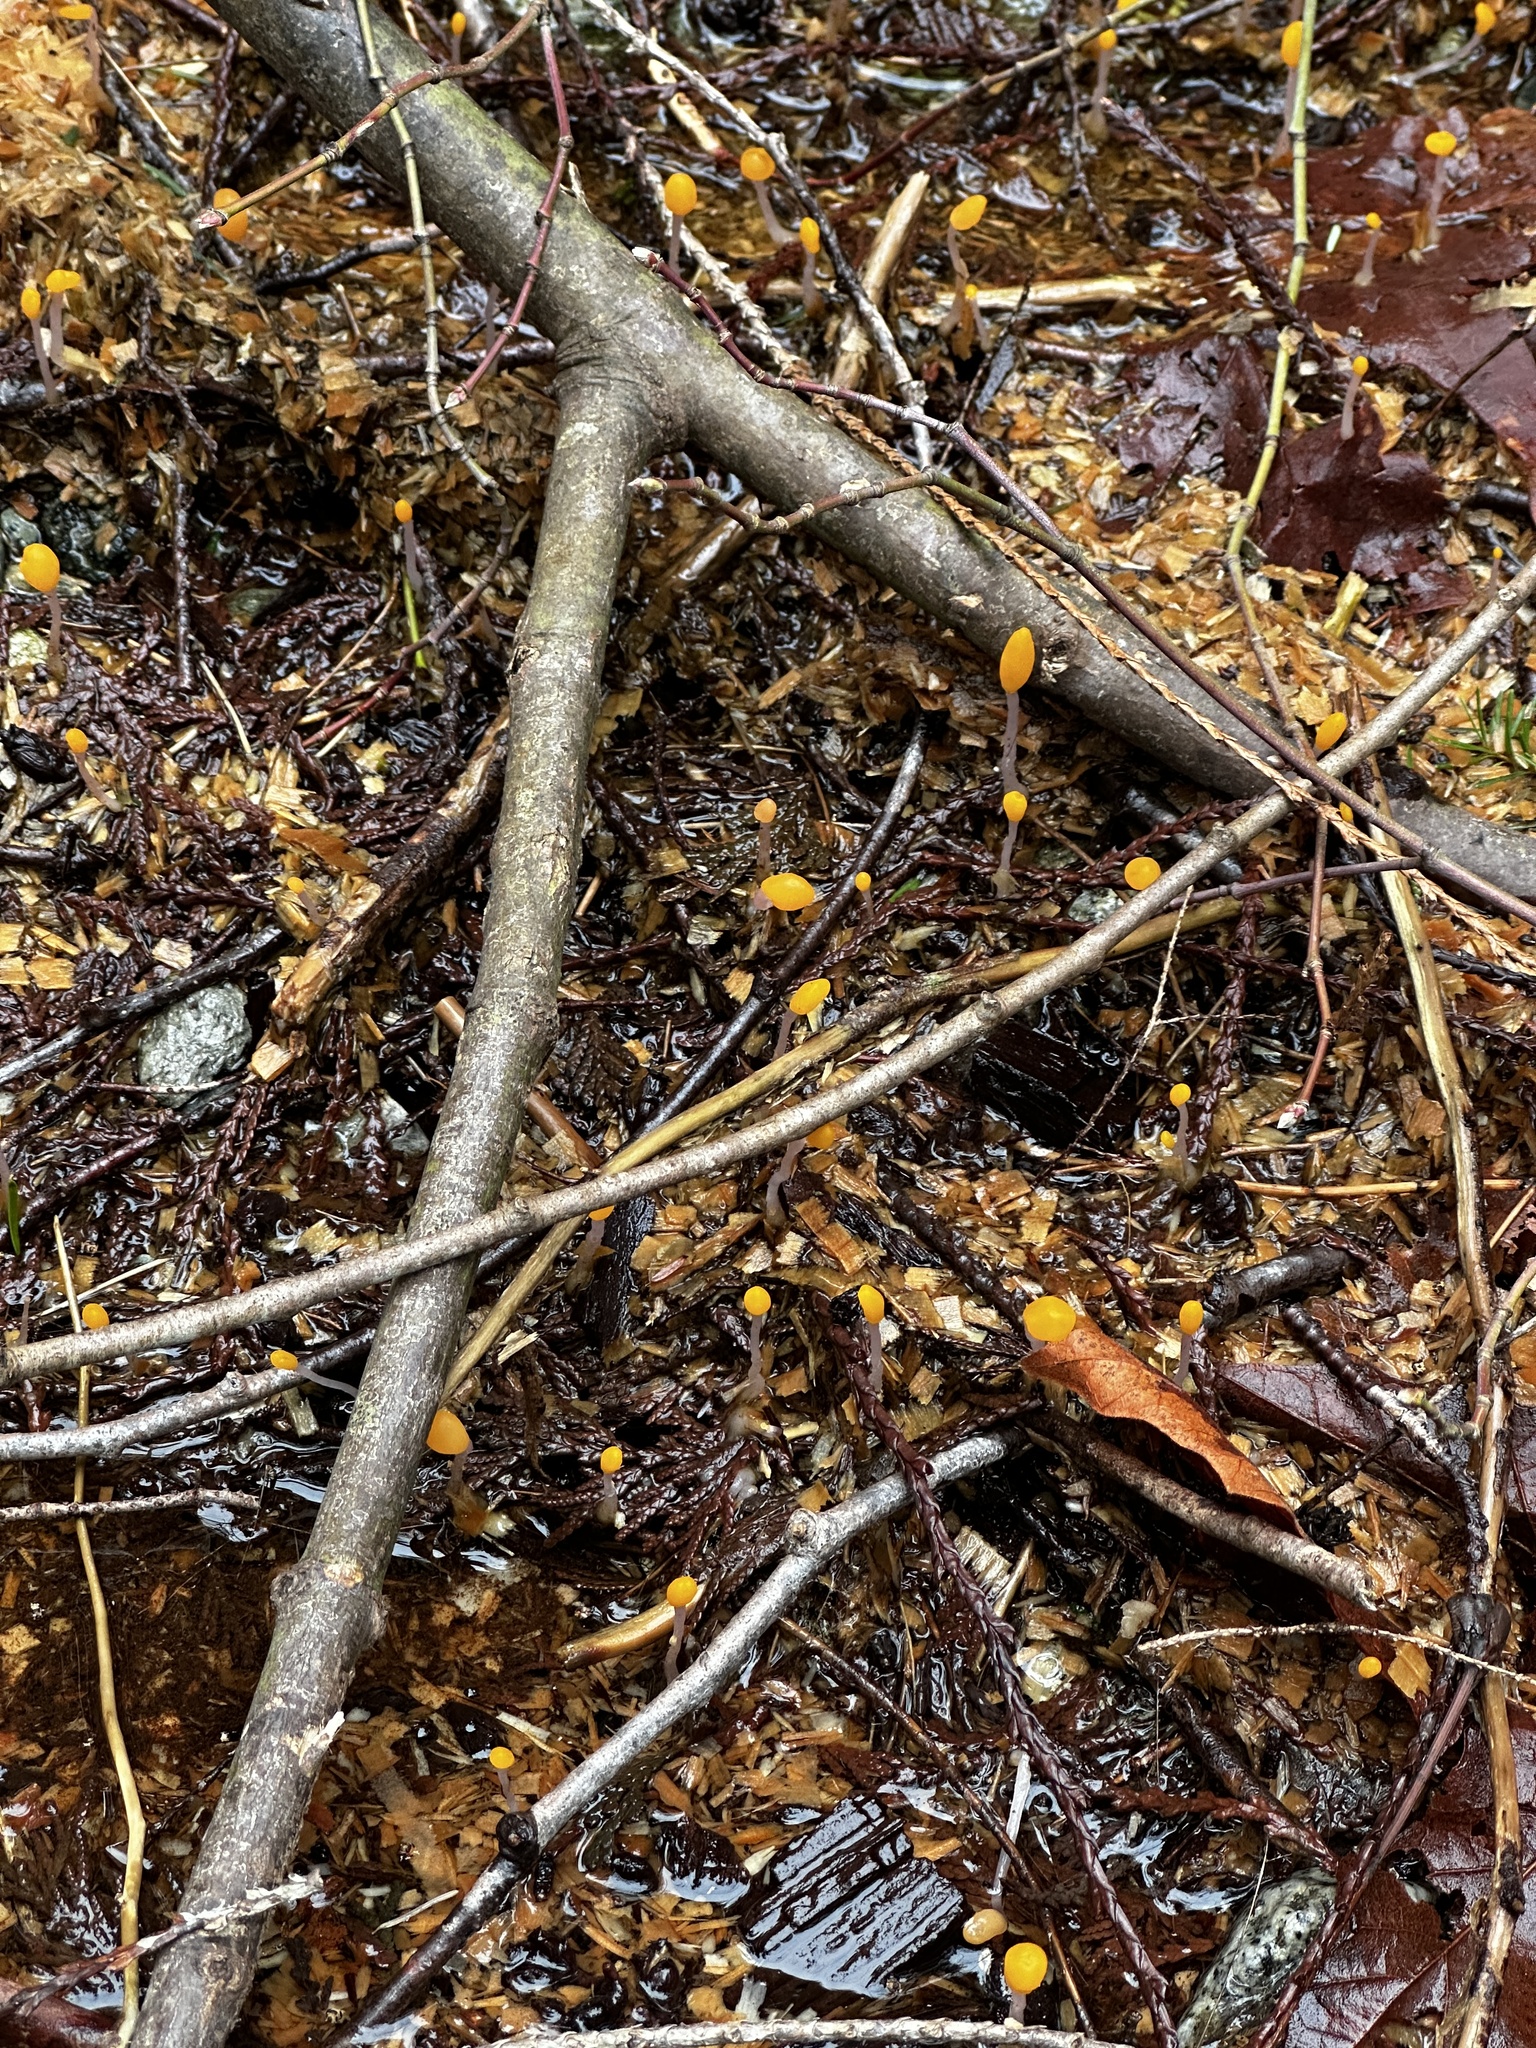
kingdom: Fungi
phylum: Ascomycota
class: Leotiomycetes
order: Helotiales
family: Sclerotiniaceae
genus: Mitrula
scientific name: Mitrula elegans
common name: Swamp beacon
